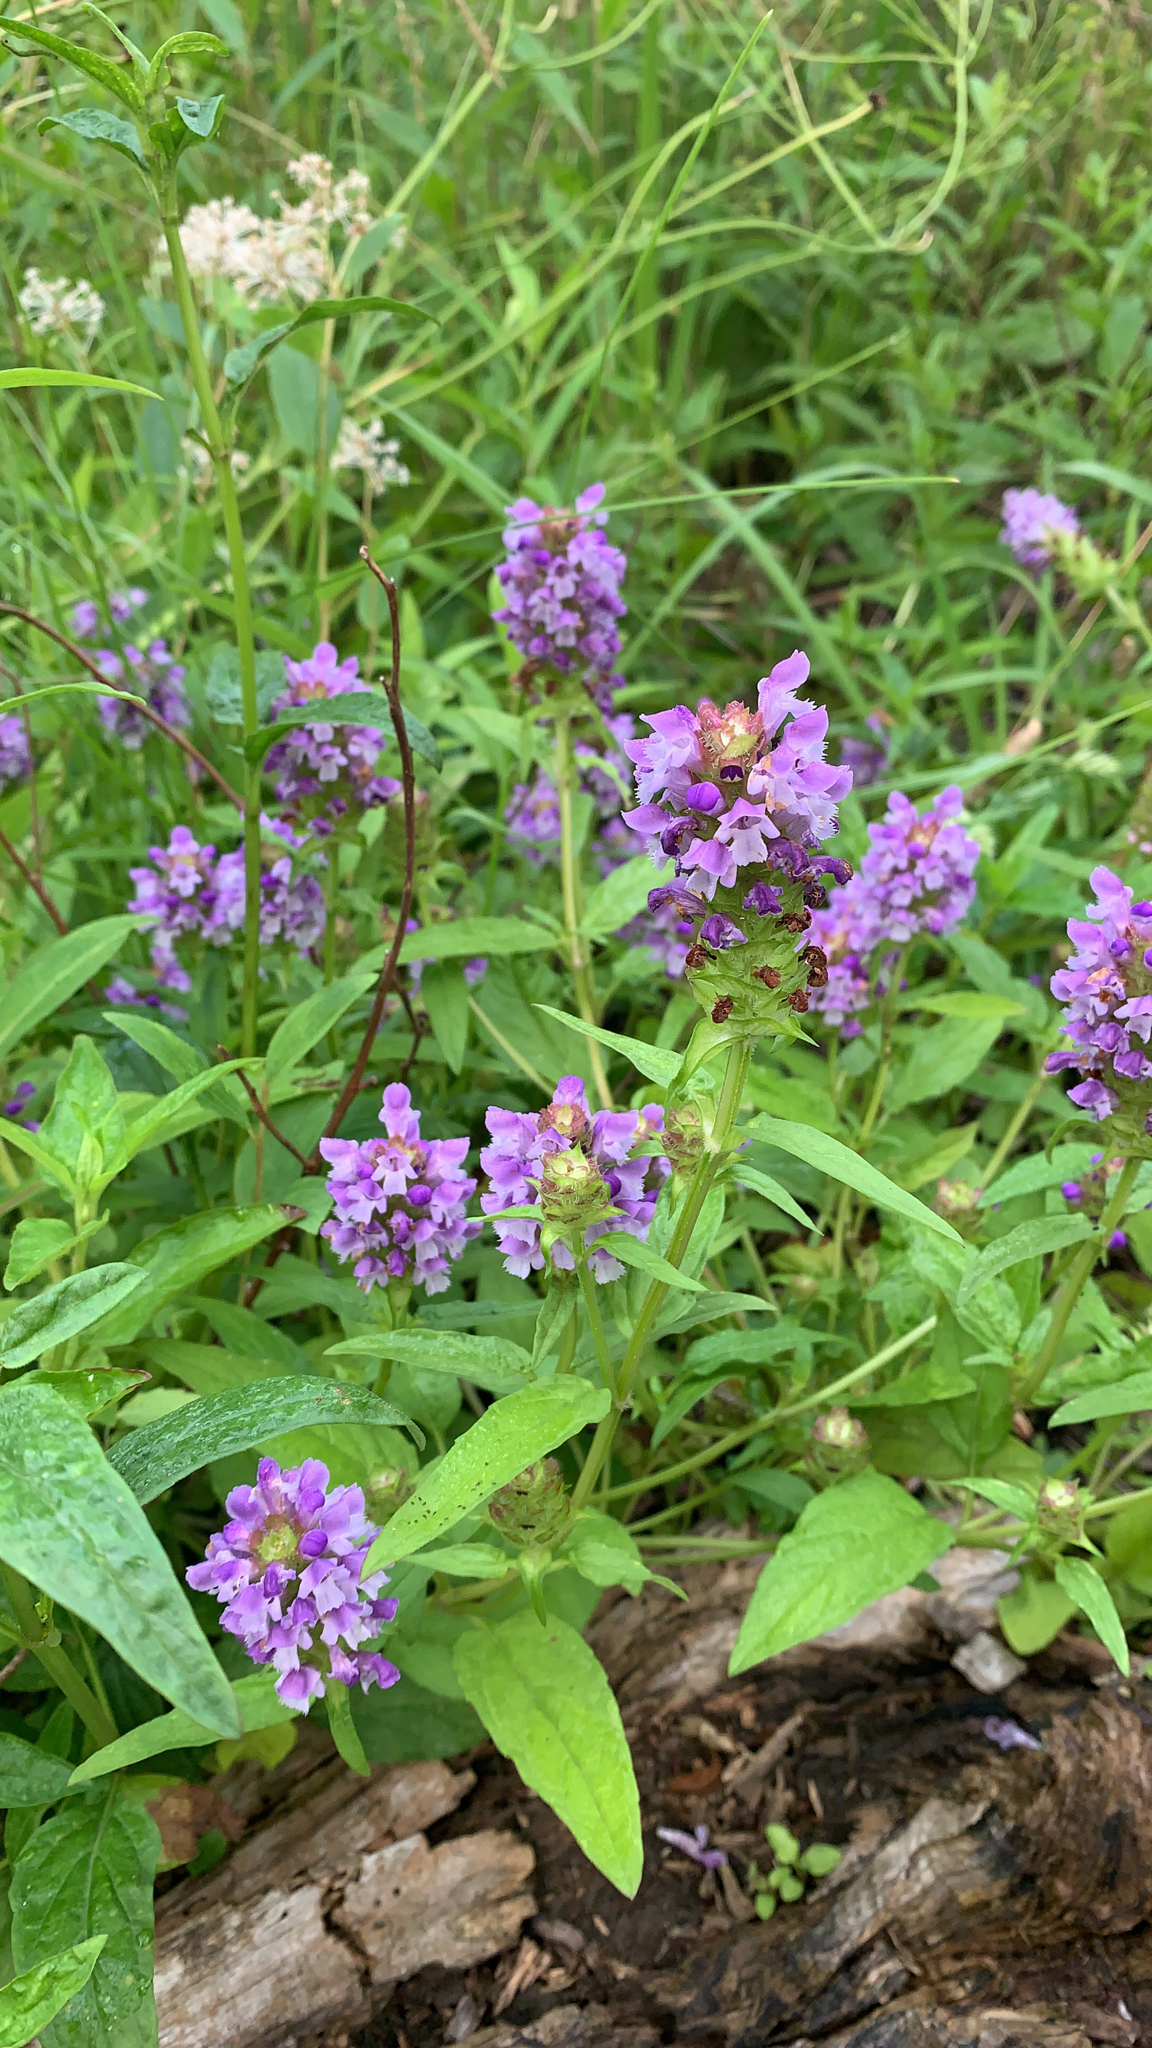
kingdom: Plantae
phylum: Tracheophyta
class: Magnoliopsida
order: Lamiales
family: Lamiaceae
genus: Prunella
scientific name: Prunella vulgaris
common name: Heal-all
